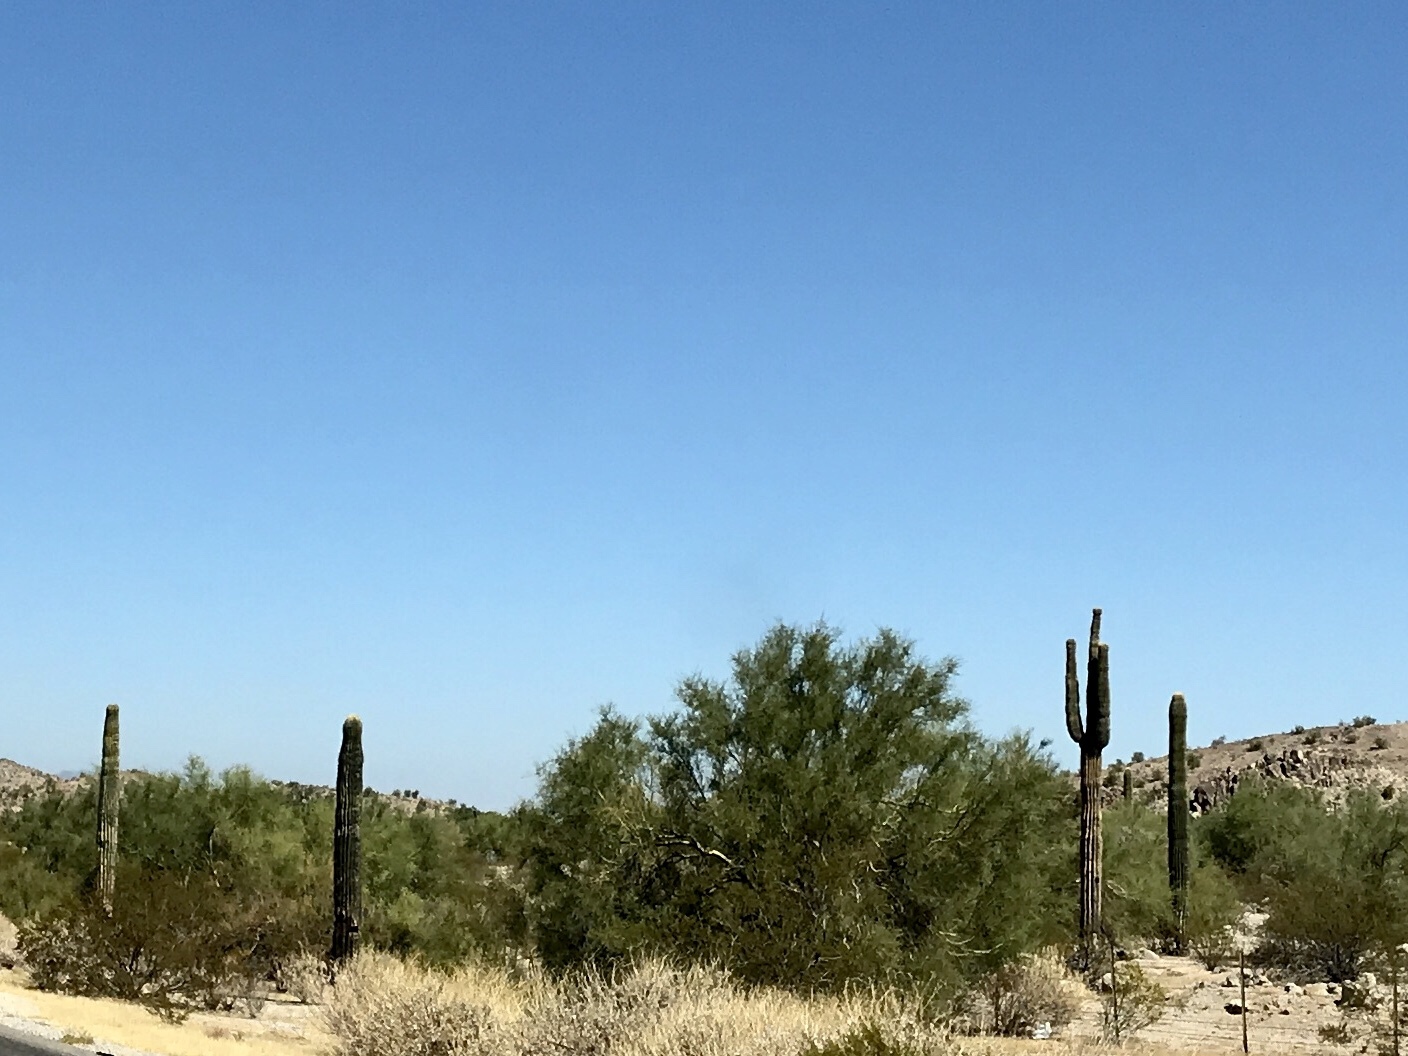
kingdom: Plantae
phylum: Tracheophyta
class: Magnoliopsida
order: Caryophyllales
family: Cactaceae
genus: Carnegiea
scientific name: Carnegiea gigantea
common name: Saguaro
